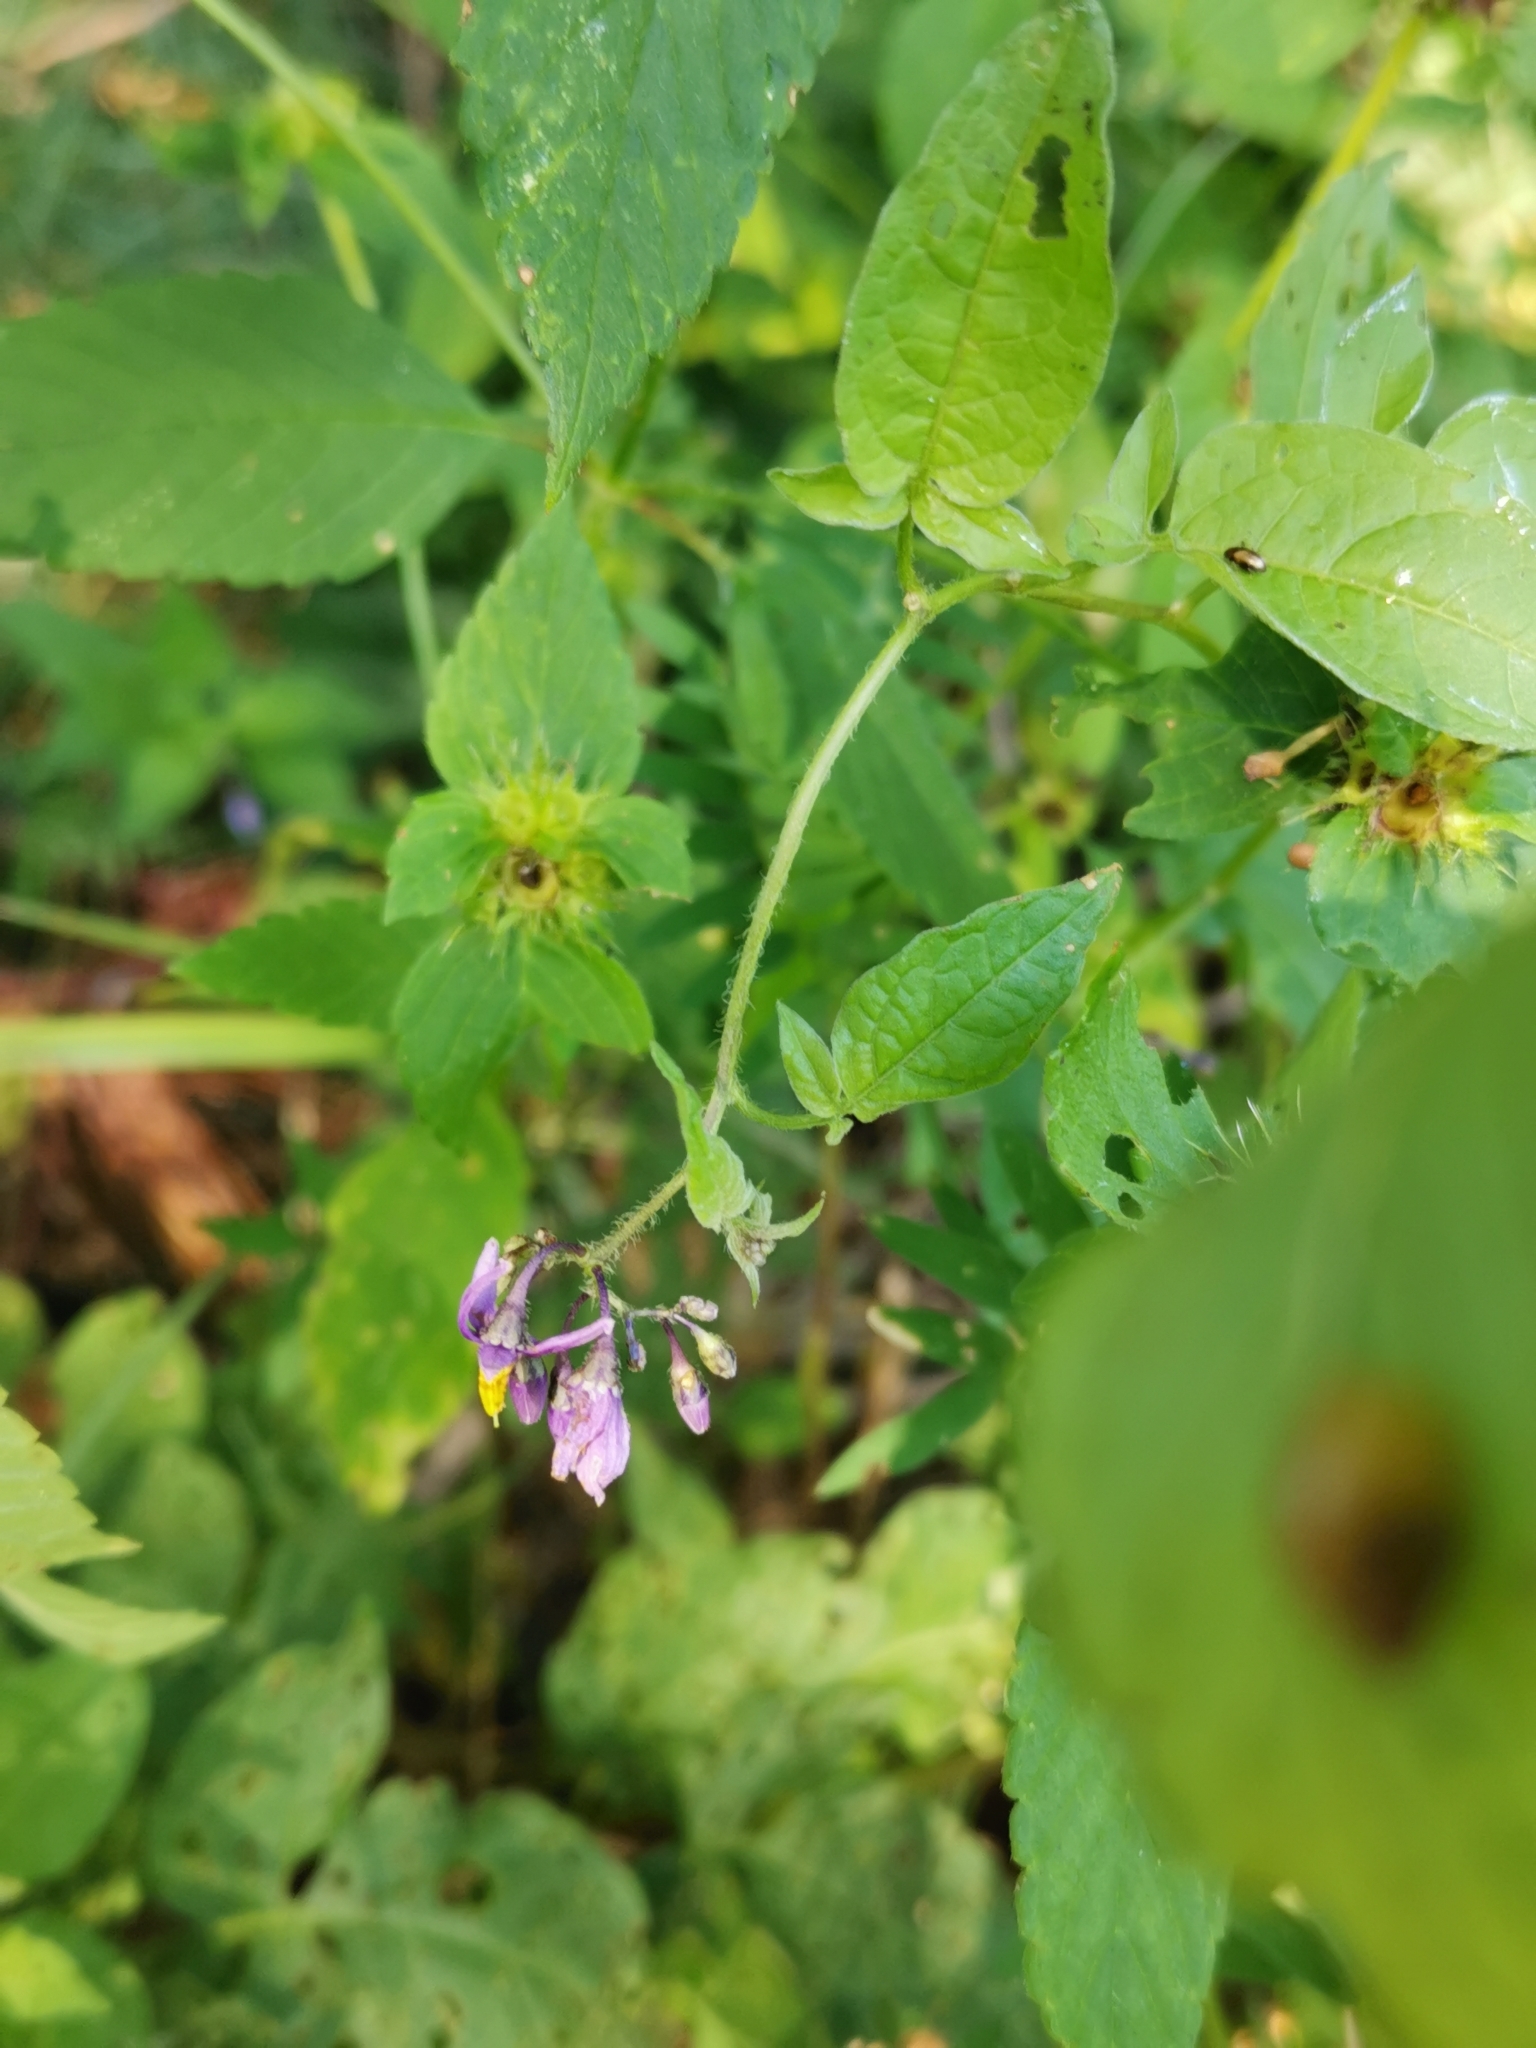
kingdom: Plantae
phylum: Tracheophyta
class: Magnoliopsida
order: Solanales
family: Solanaceae
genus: Solanum
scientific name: Solanum dulcamara
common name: Climbing nightshade
